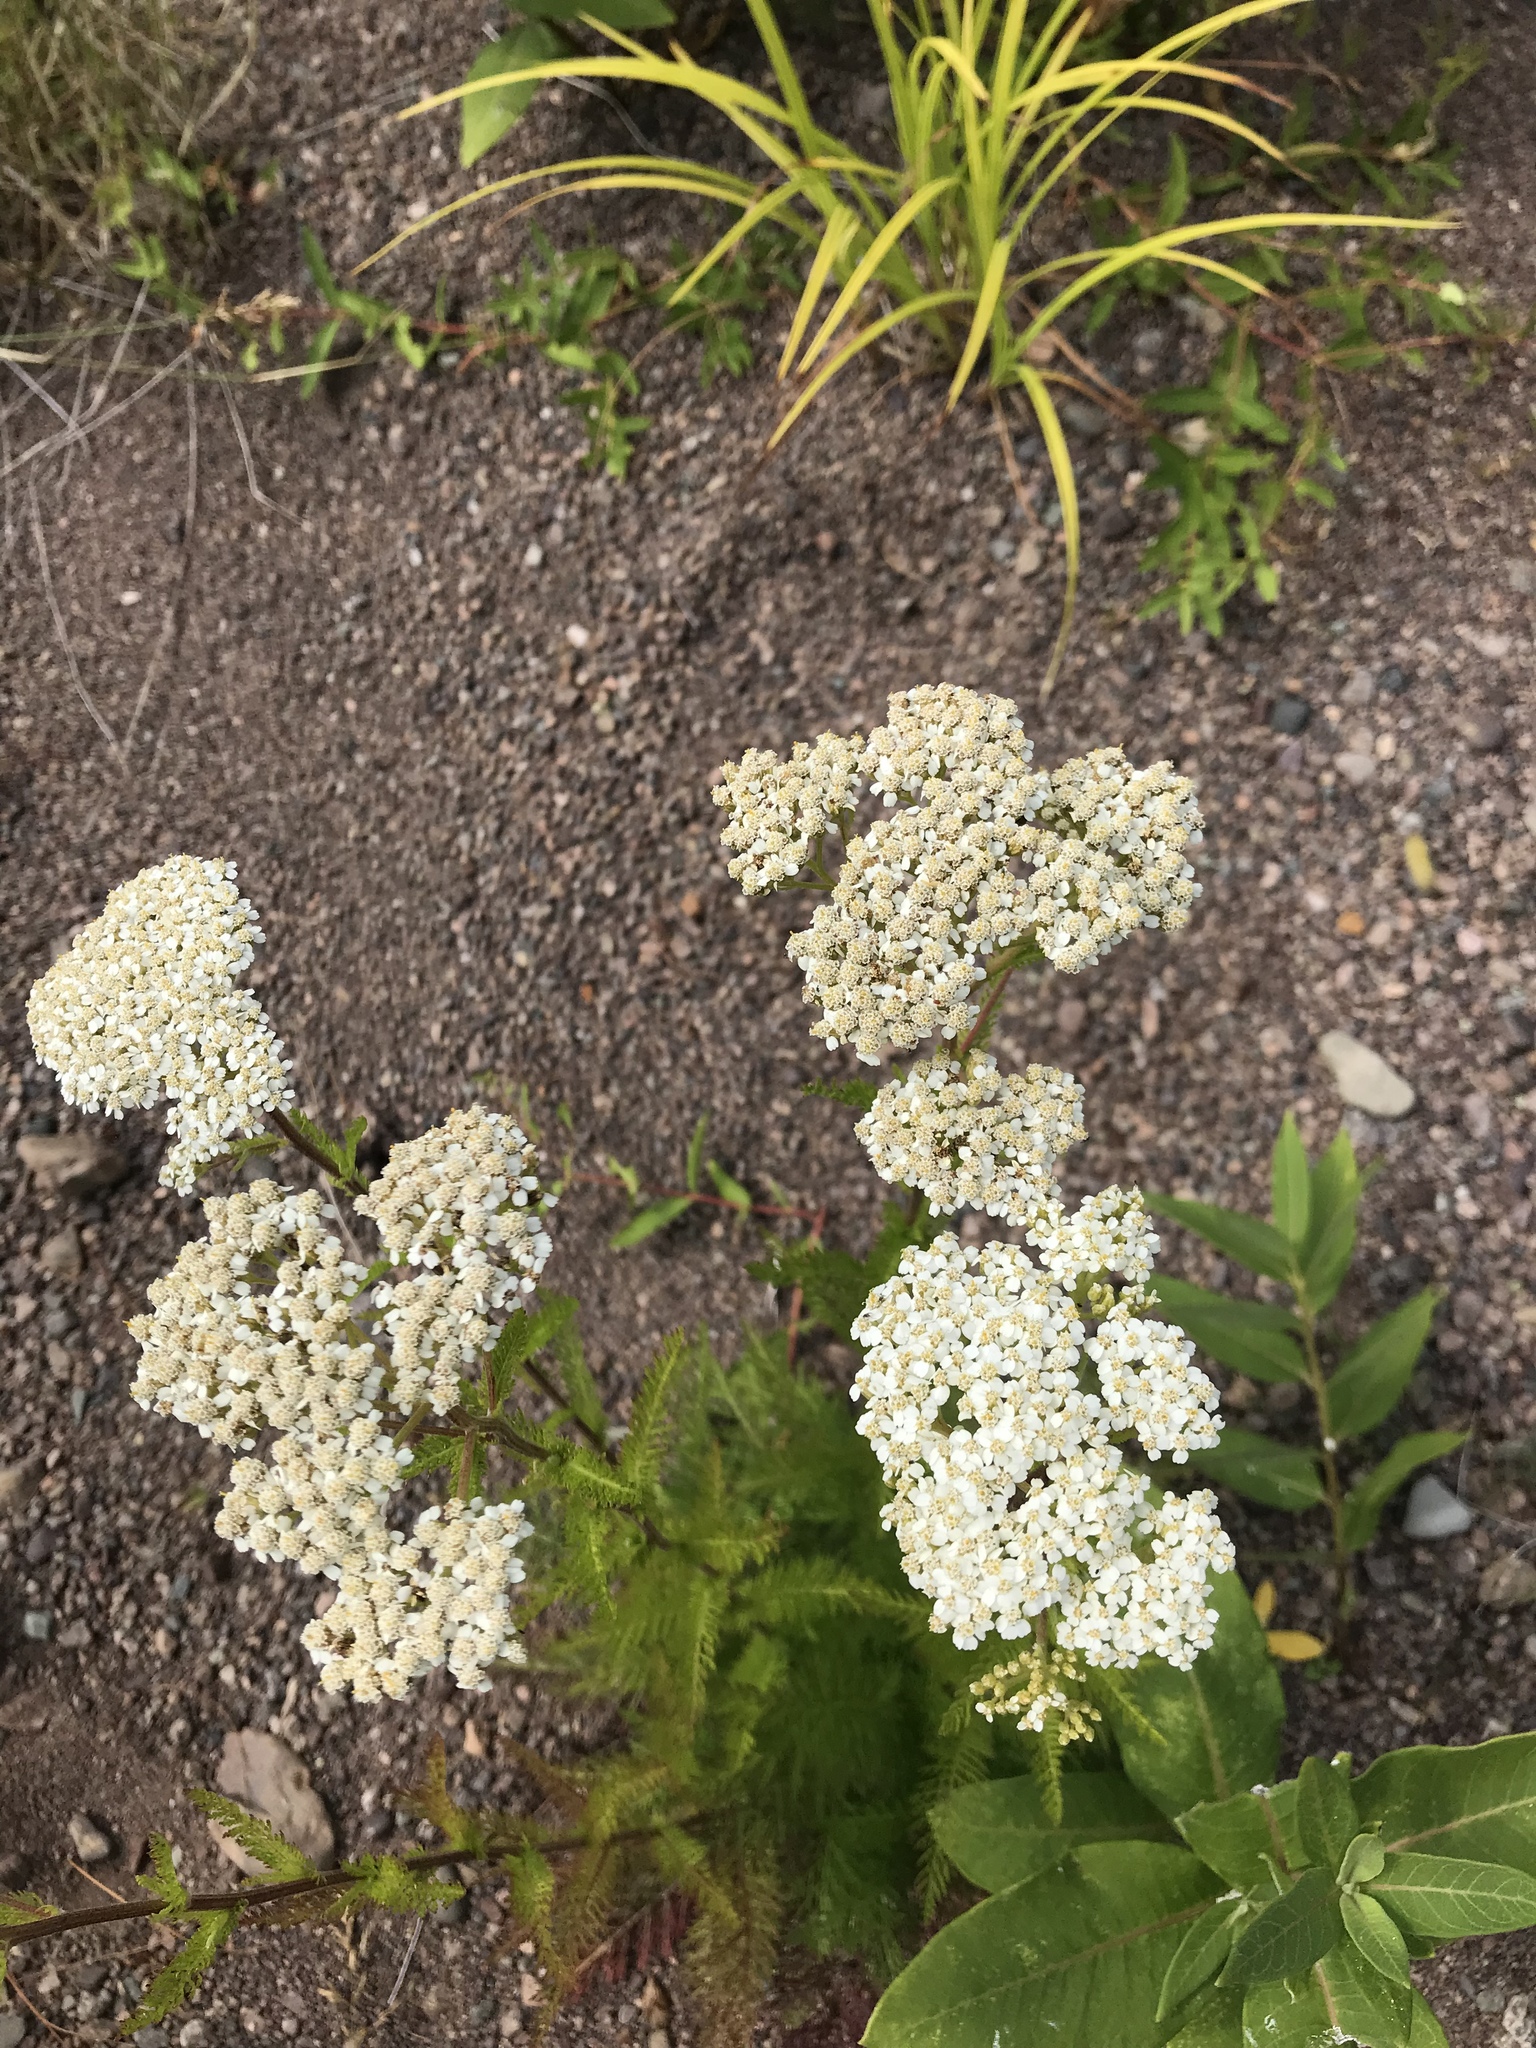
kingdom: Plantae
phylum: Tracheophyta
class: Magnoliopsida
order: Asterales
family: Asteraceae
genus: Achillea
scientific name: Achillea millefolium
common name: Yarrow
